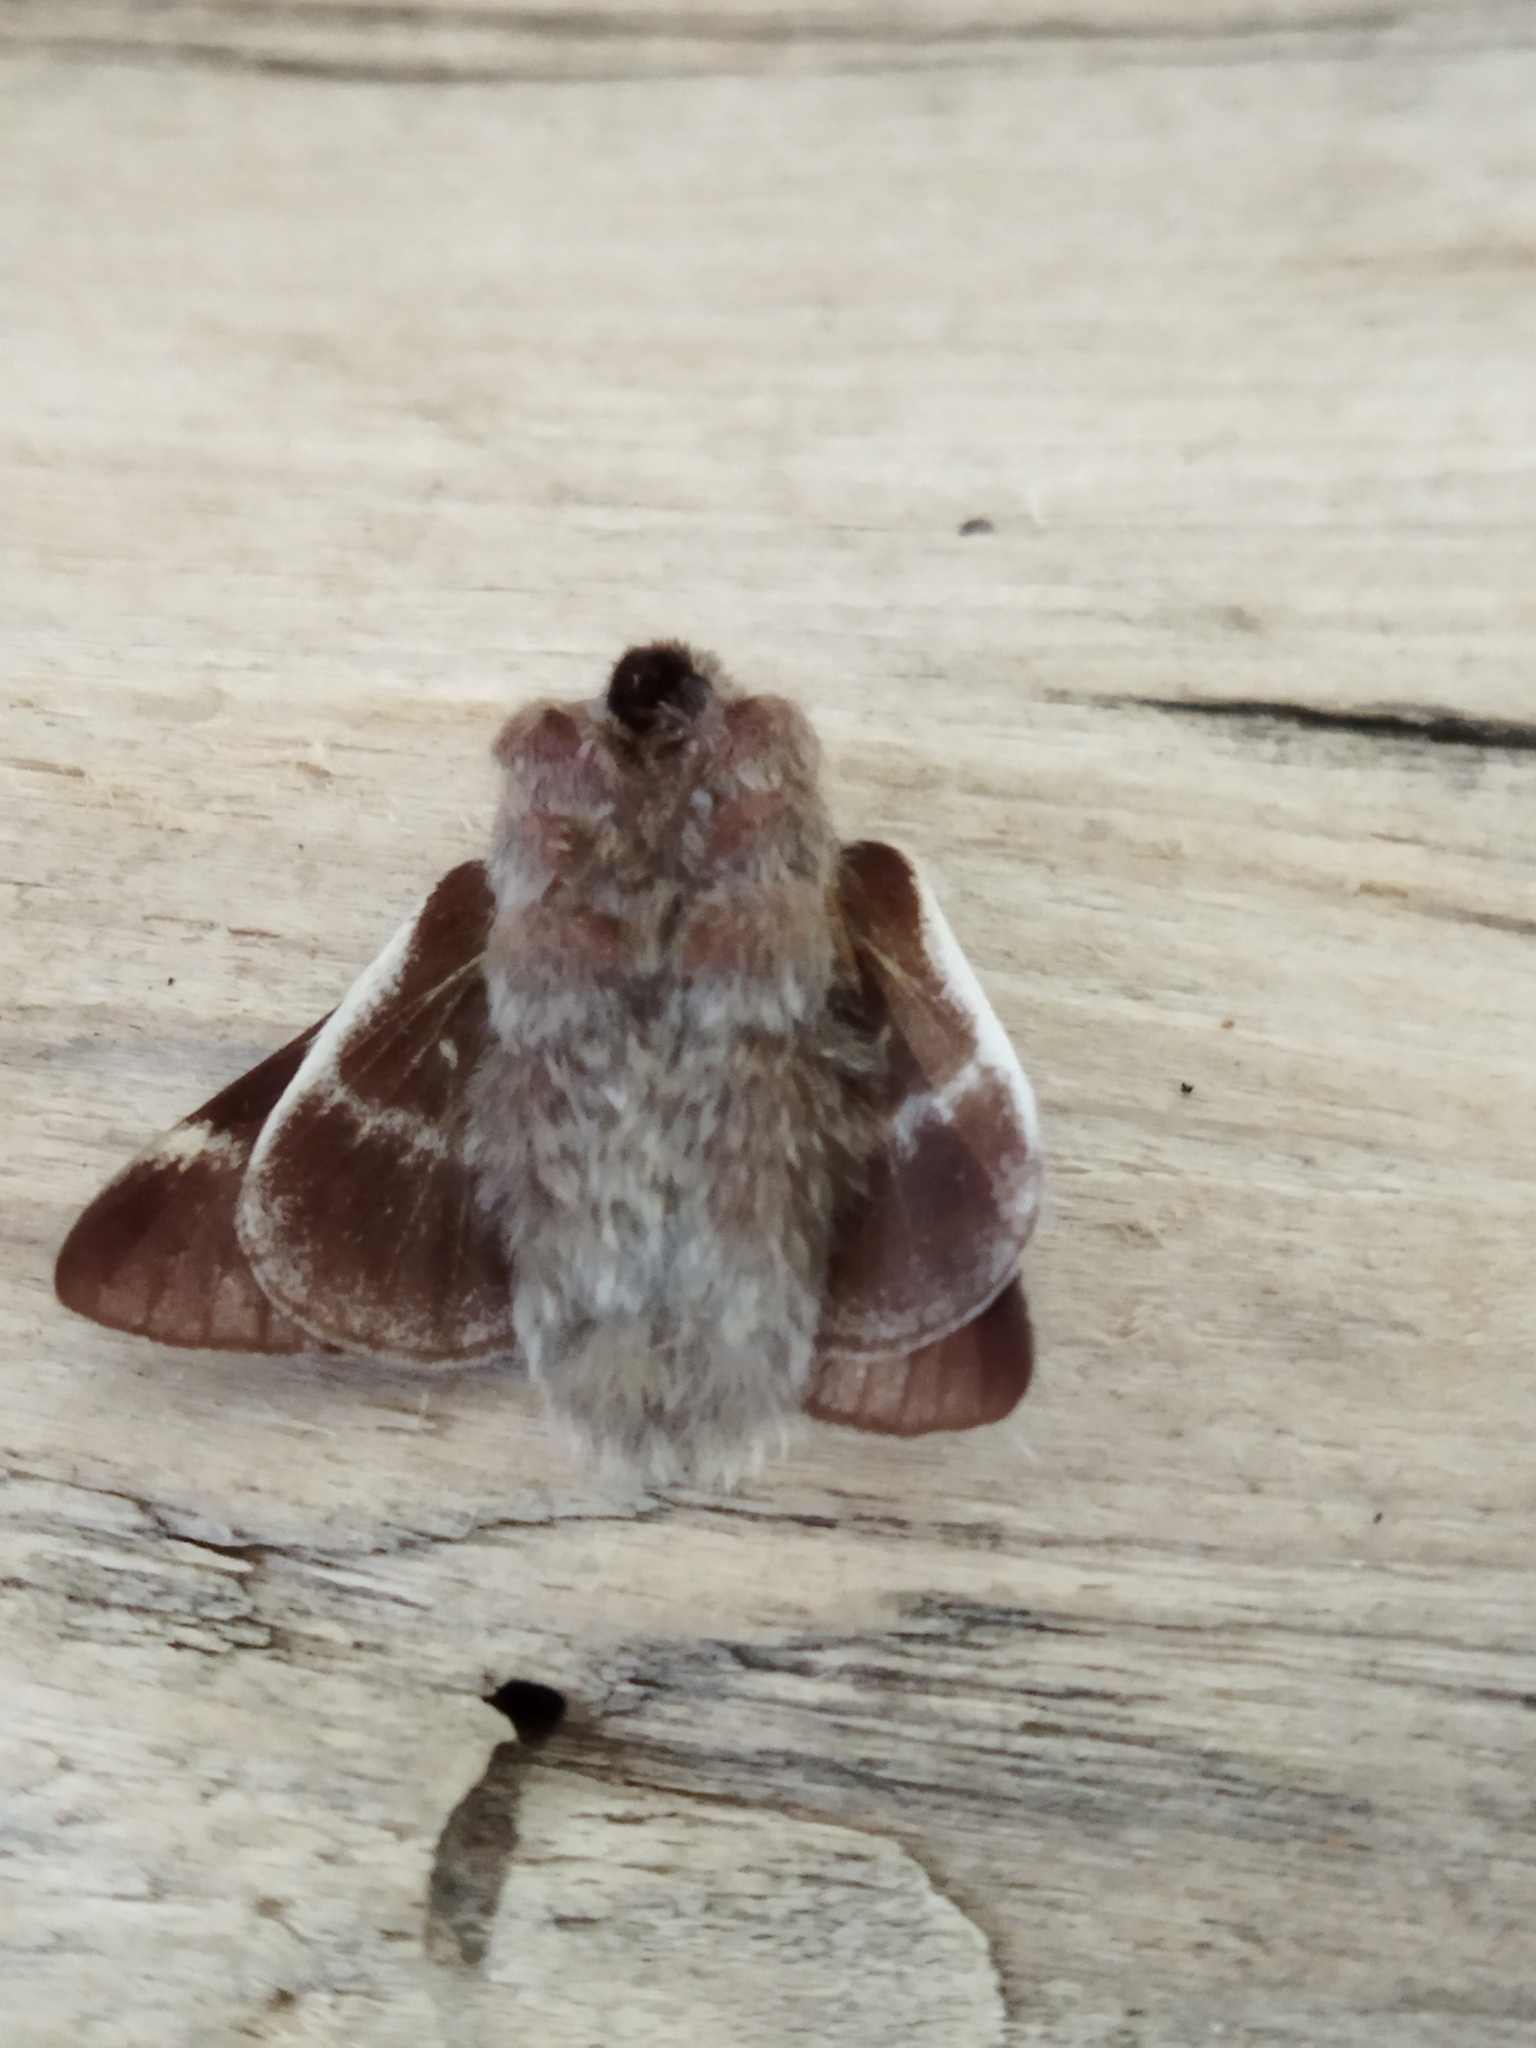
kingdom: Animalia
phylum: Arthropoda
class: Insecta
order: Lepidoptera
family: Lasiocampidae
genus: Eriogaster
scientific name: Eriogaster lanestris
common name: Small eggar
